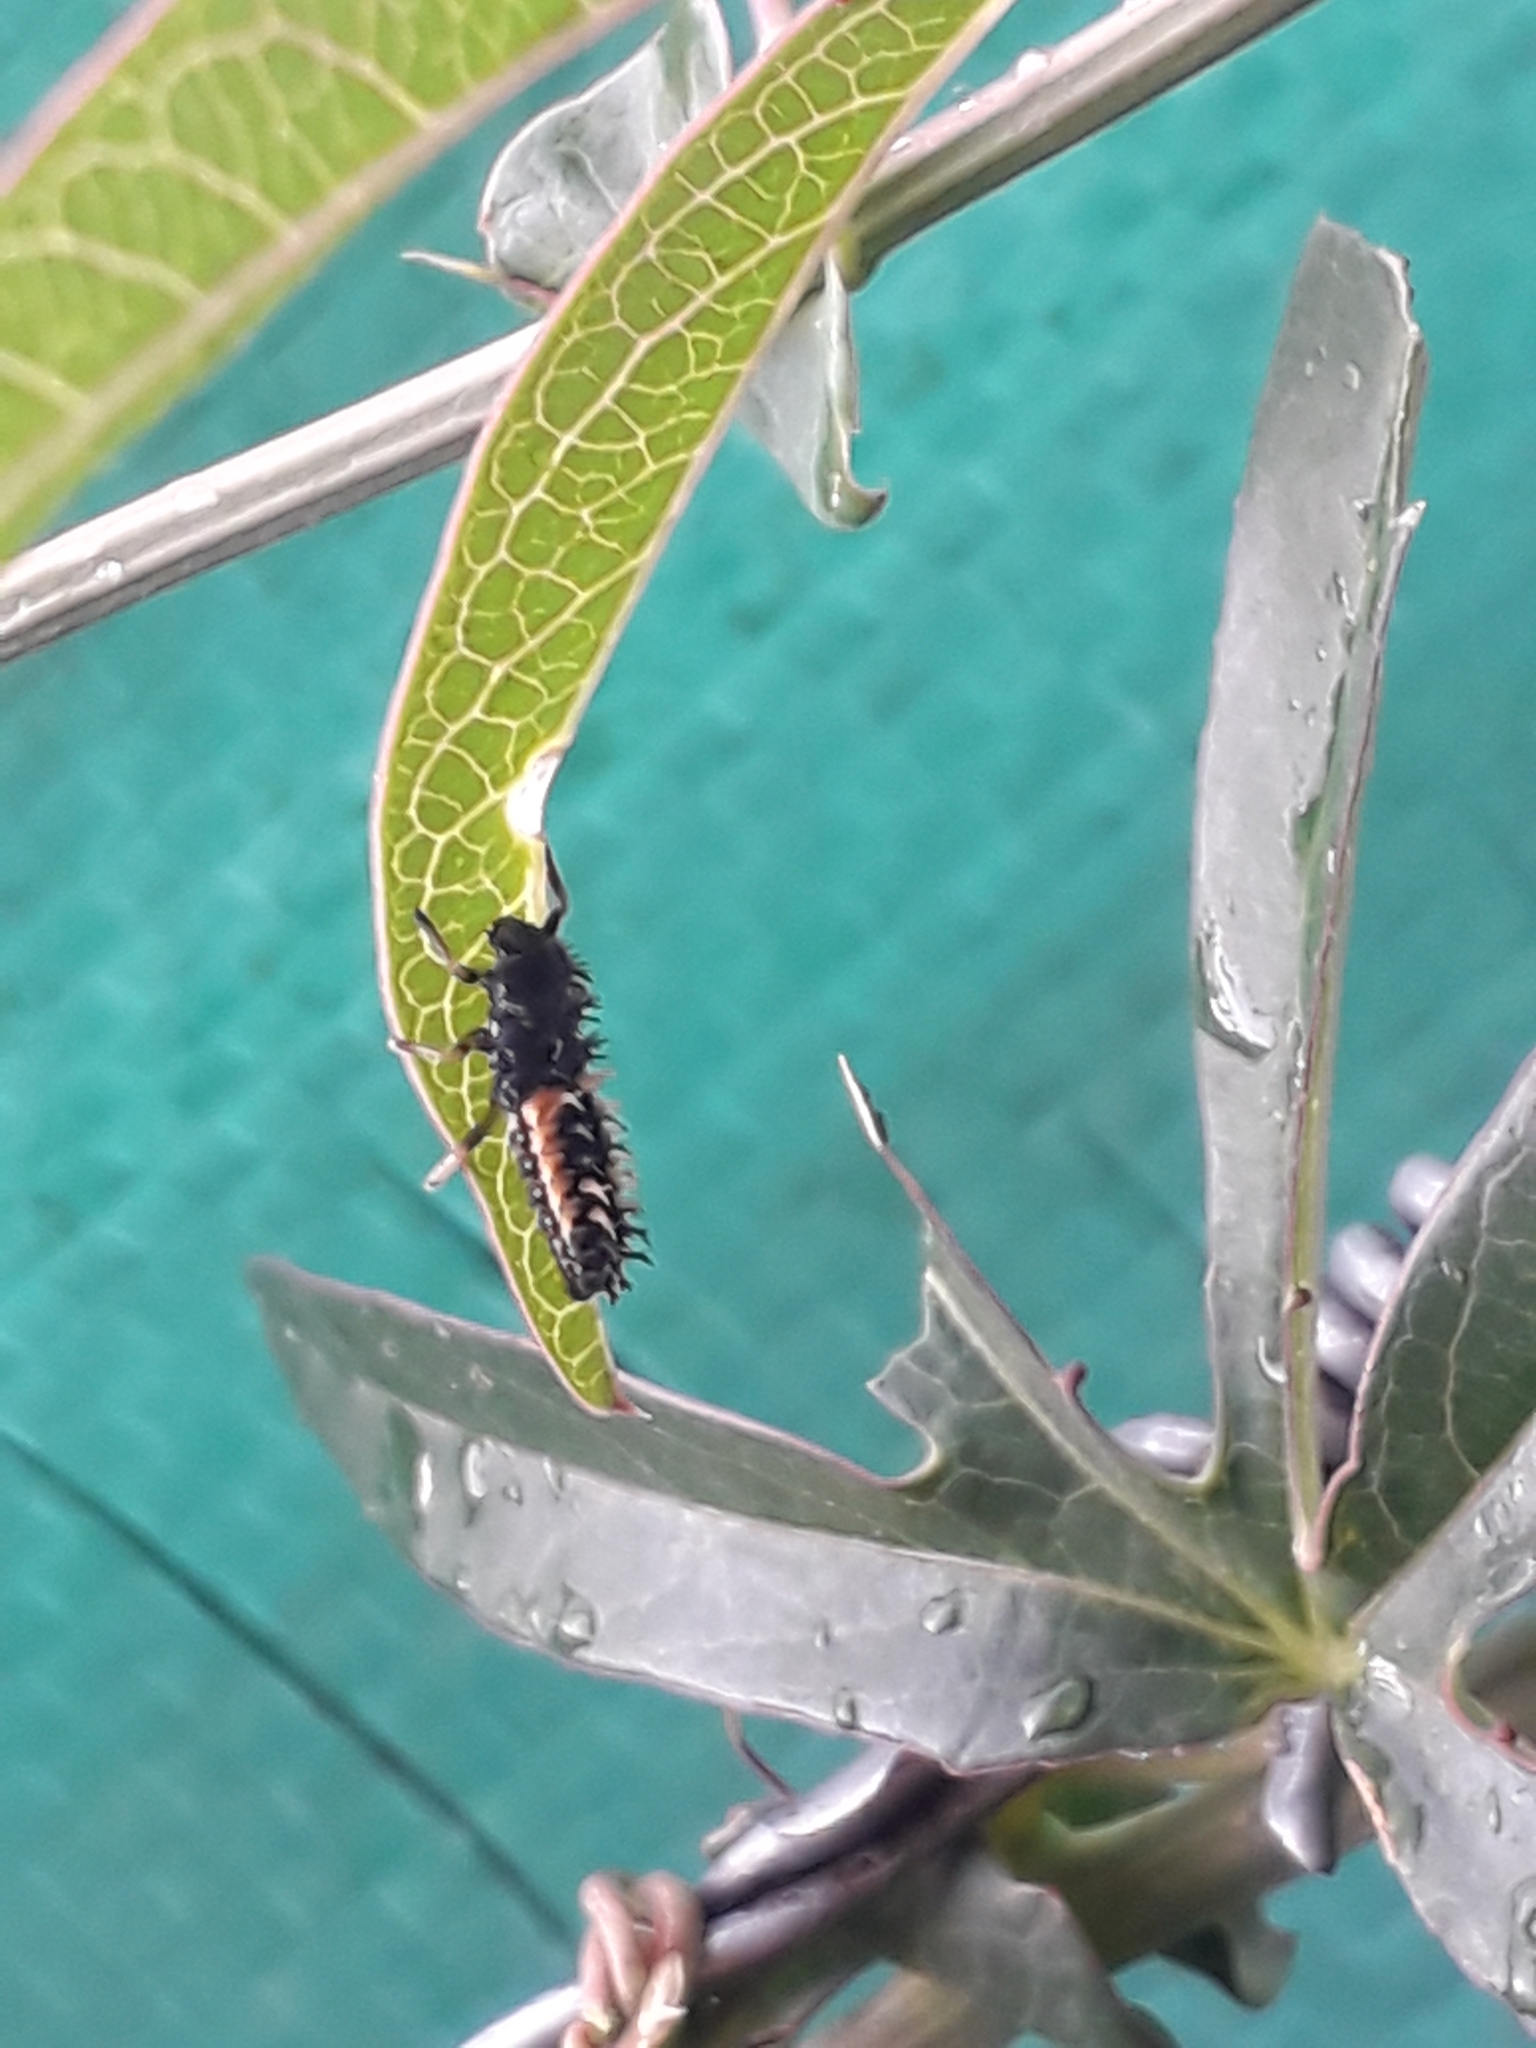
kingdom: Animalia
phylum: Arthropoda
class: Insecta
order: Coleoptera
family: Coccinellidae
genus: Harmonia
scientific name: Harmonia axyridis
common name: Harlequin ladybird
